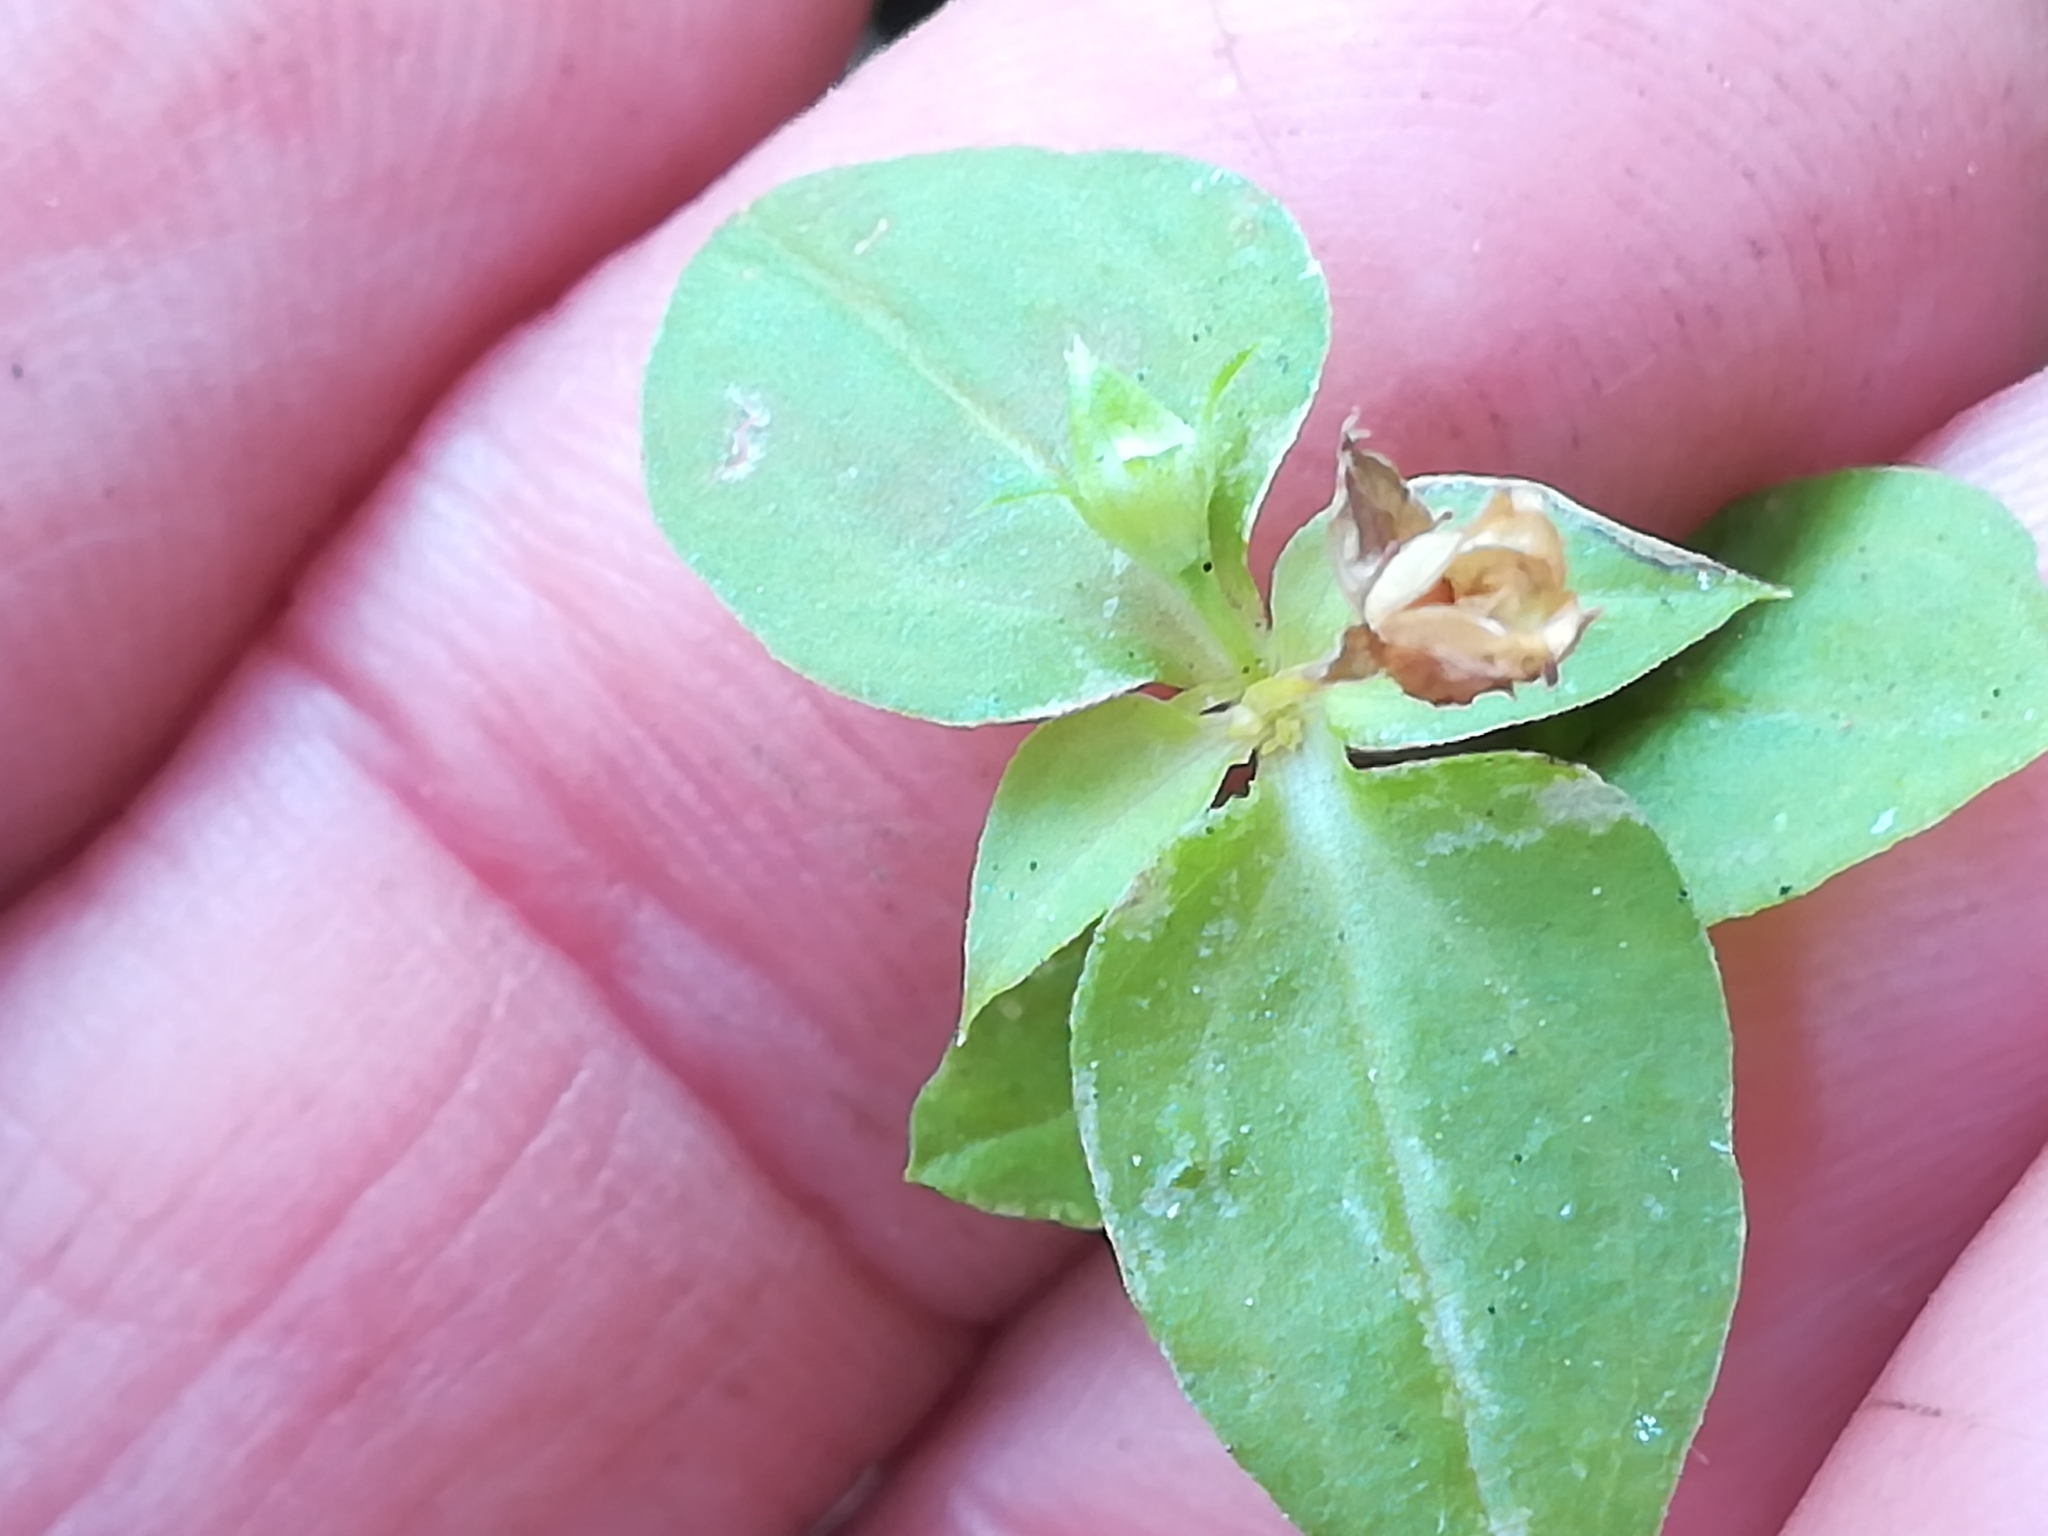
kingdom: Plantae
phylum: Tracheophyta
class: Magnoliopsida
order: Caryophyllales
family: Caryophyllaceae
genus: Stellaria
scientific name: Stellaria media
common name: Common chickweed
